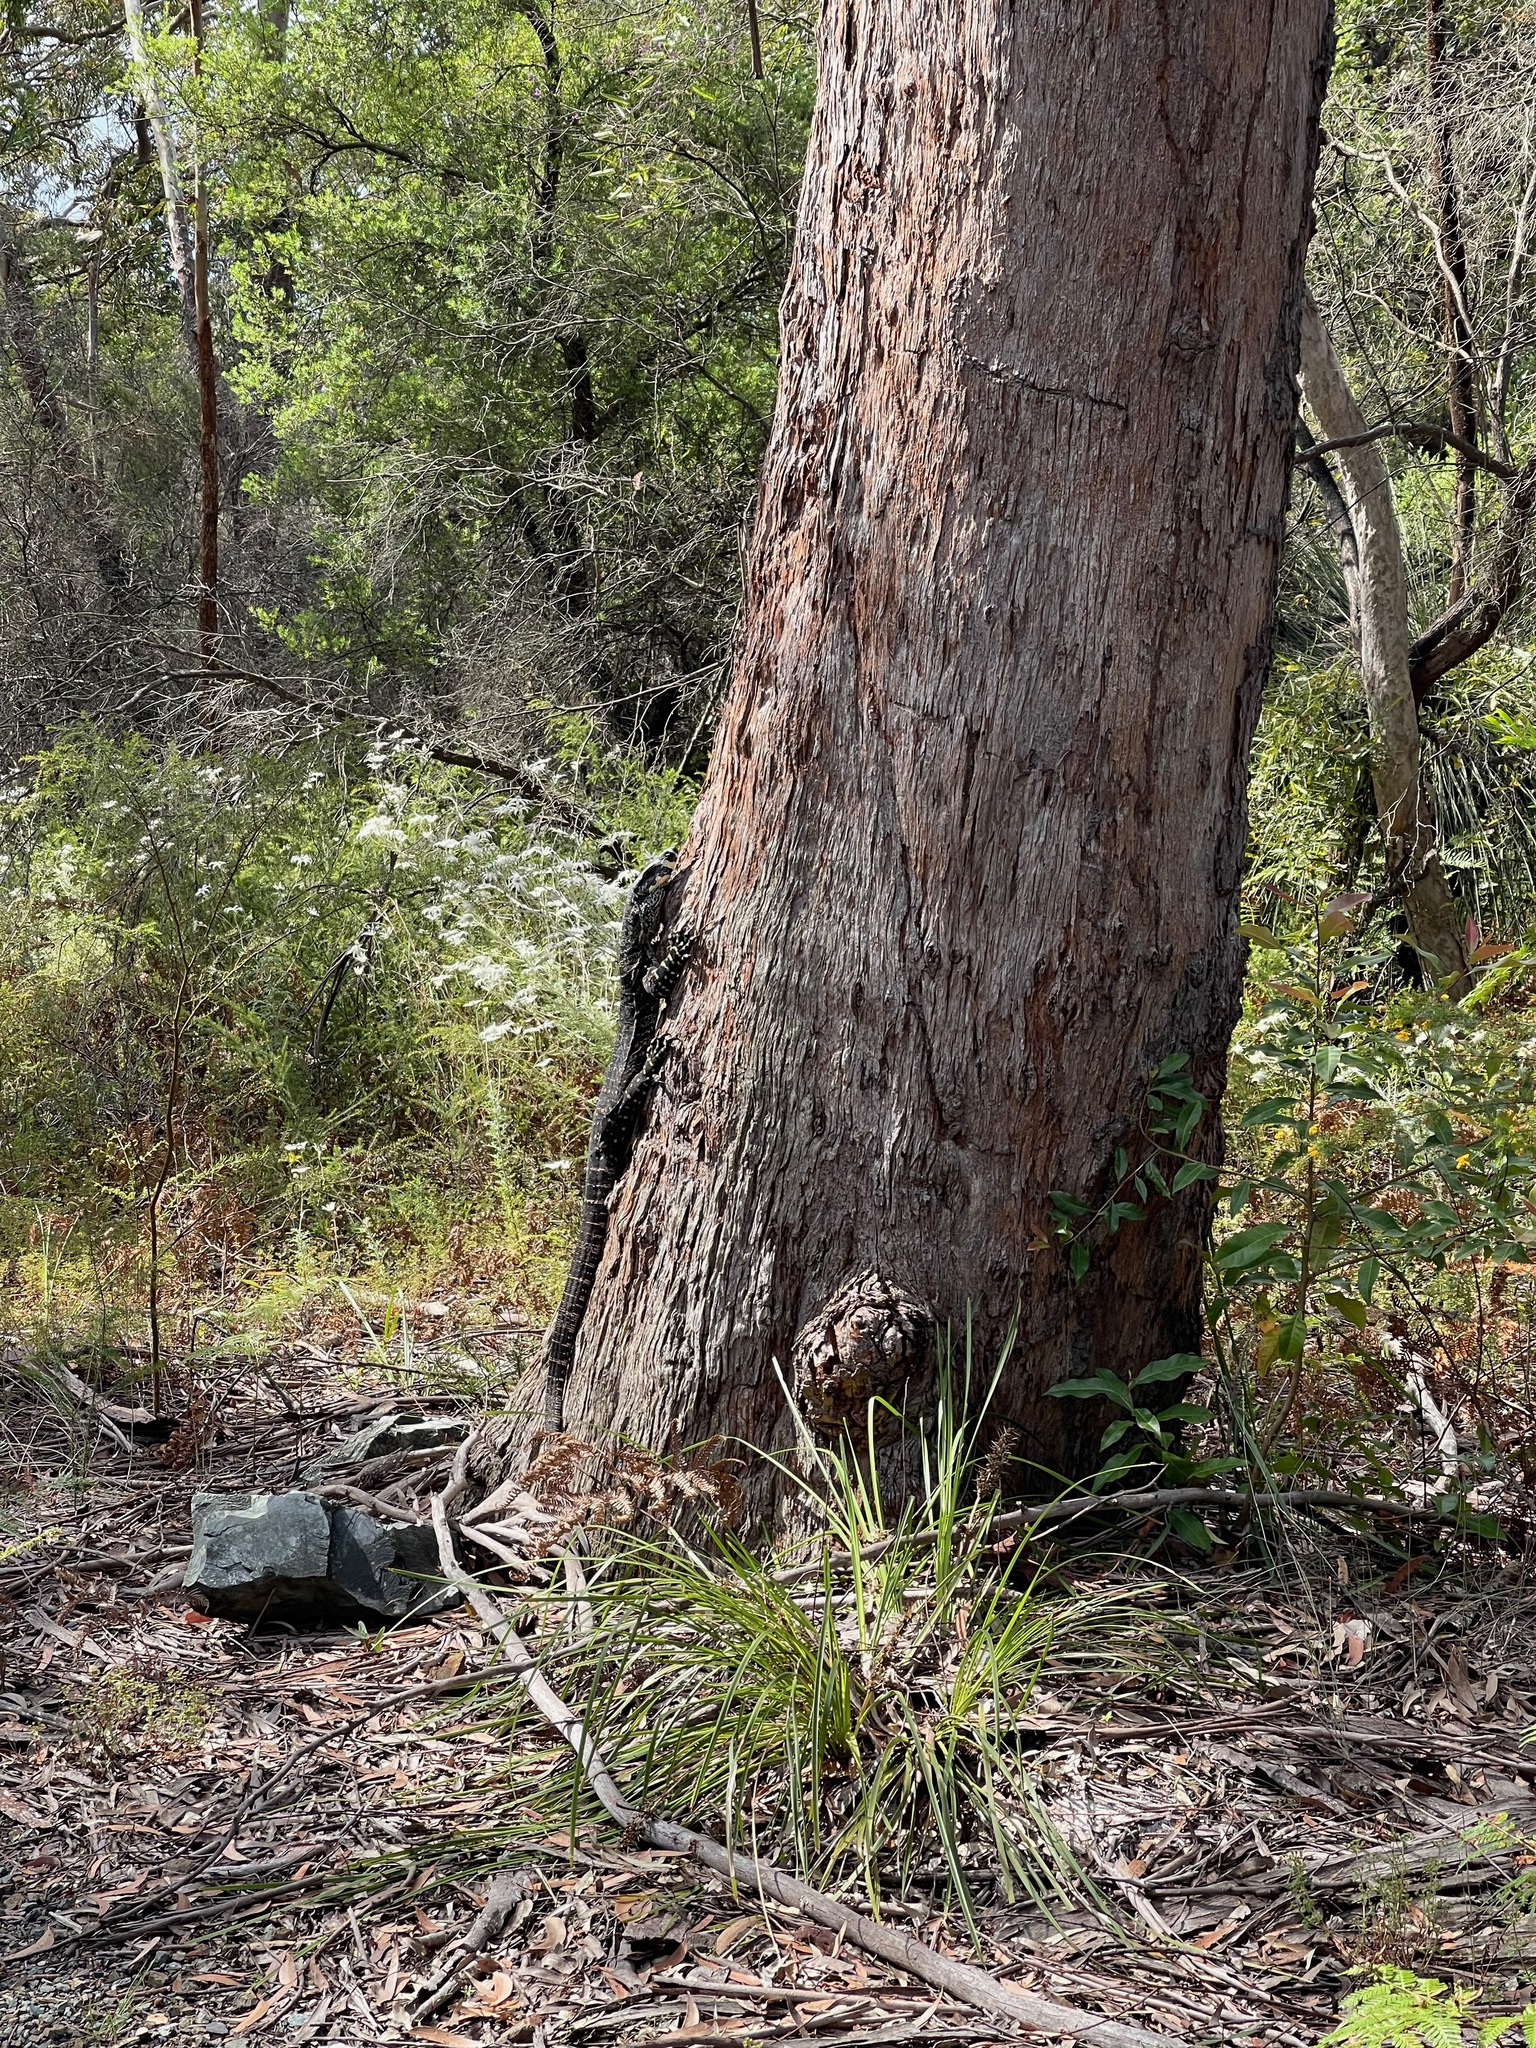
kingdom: Animalia
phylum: Chordata
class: Squamata
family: Varanidae
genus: Varanus
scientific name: Varanus varius
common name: Lace monitor
